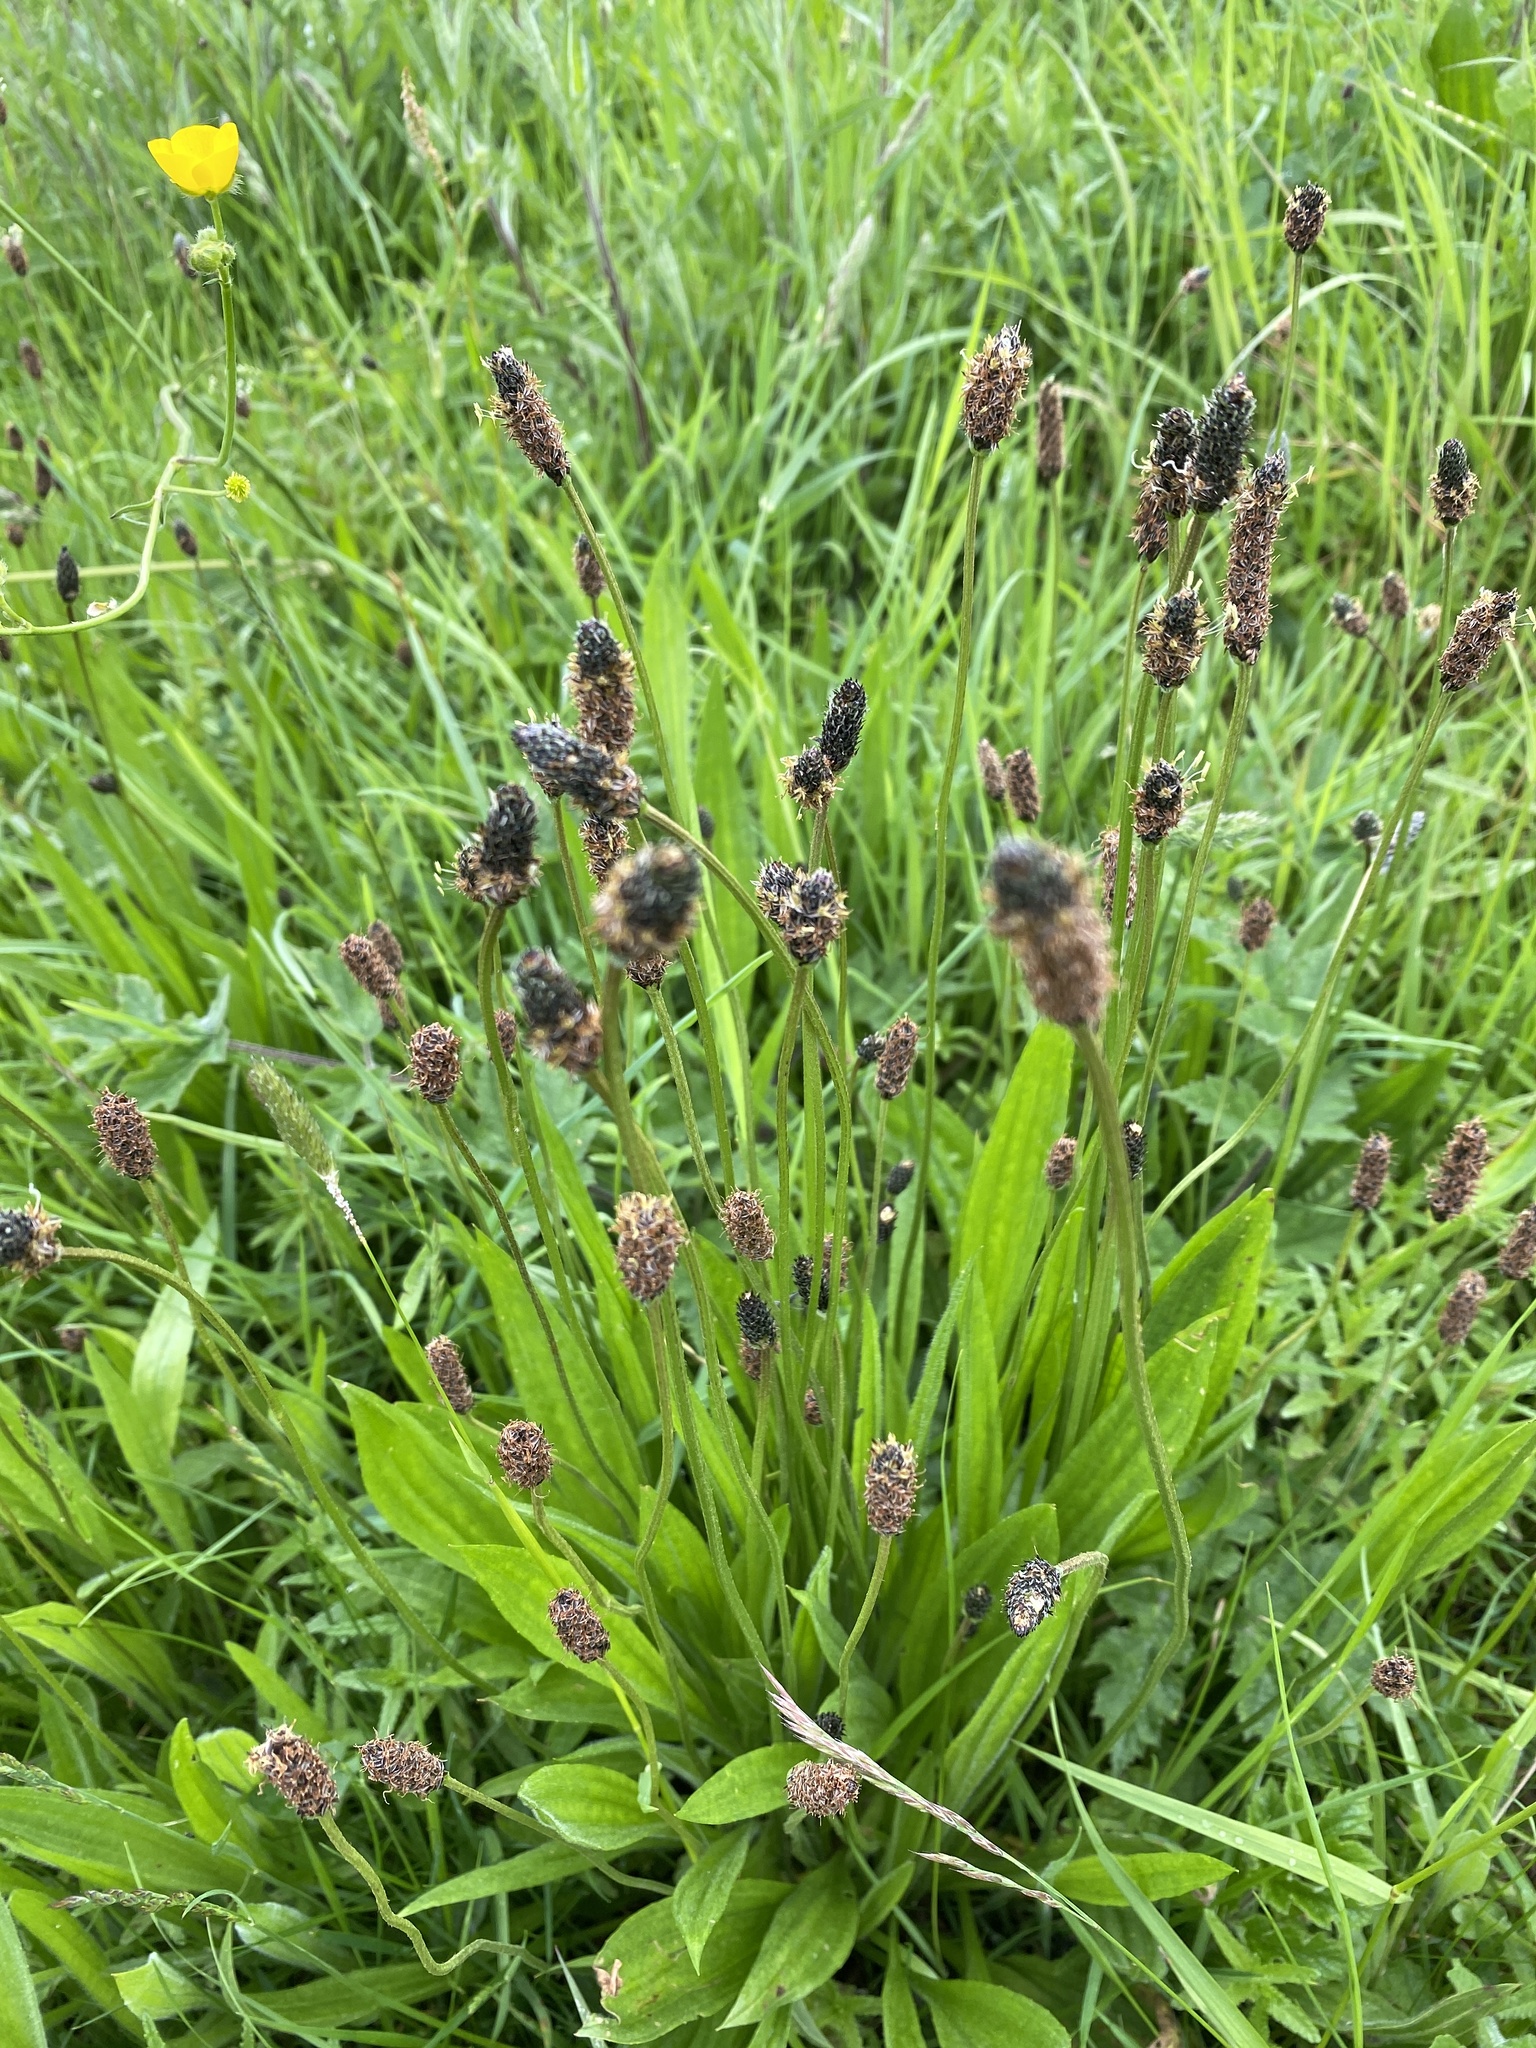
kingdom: Plantae
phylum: Tracheophyta
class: Magnoliopsida
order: Lamiales
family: Plantaginaceae
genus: Plantago
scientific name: Plantago lanceolata
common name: Ribwort plantain
